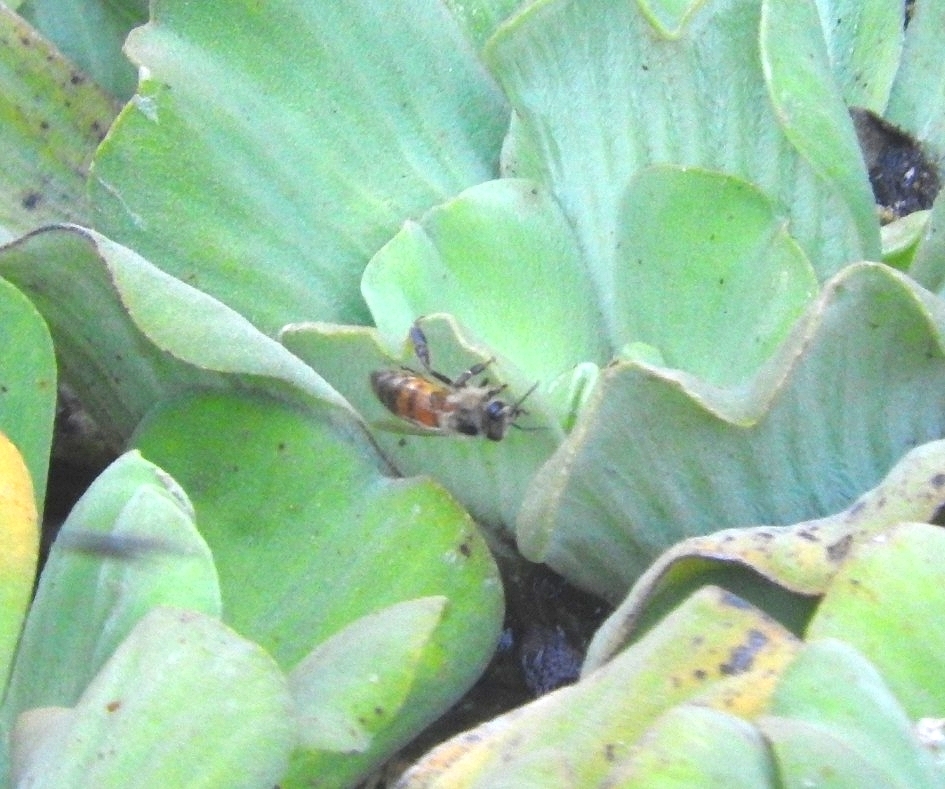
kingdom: Animalia
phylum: Arthropoda
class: Insecta
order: Hymenoptera
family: Apidae
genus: Apis
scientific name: Apis mellifera
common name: Honey bee
